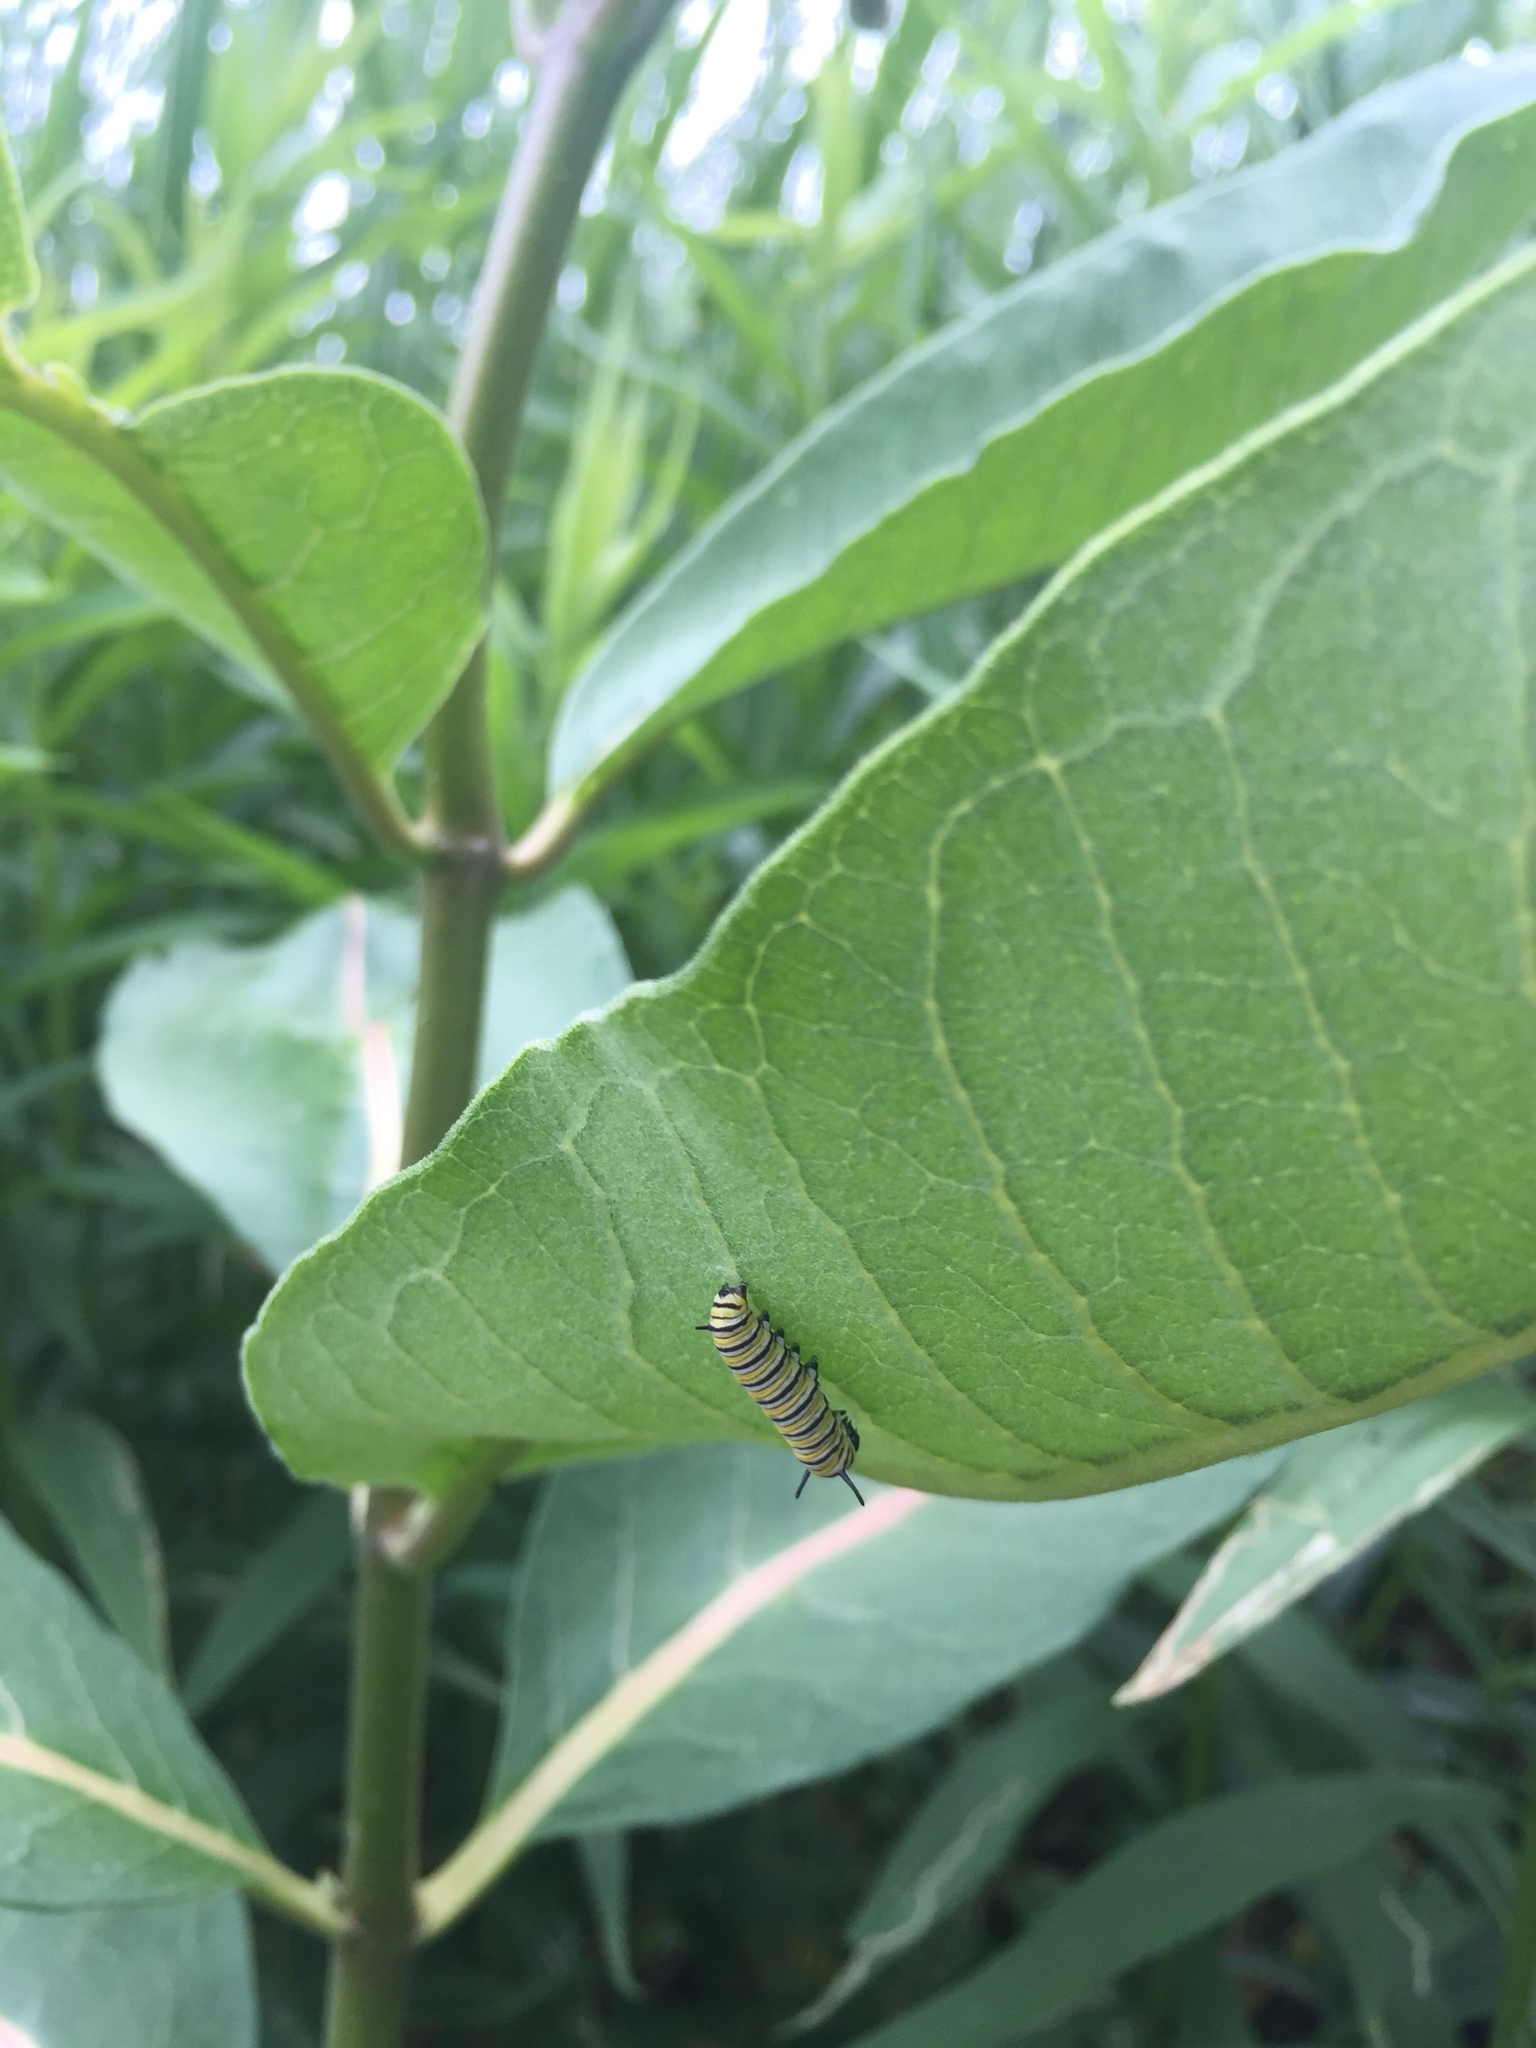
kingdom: Animalia
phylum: Arthropoda
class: Insecta
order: Lepidoptera
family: Nymphalidae
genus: Danaus
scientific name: Danaus plexippus
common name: Monarch
